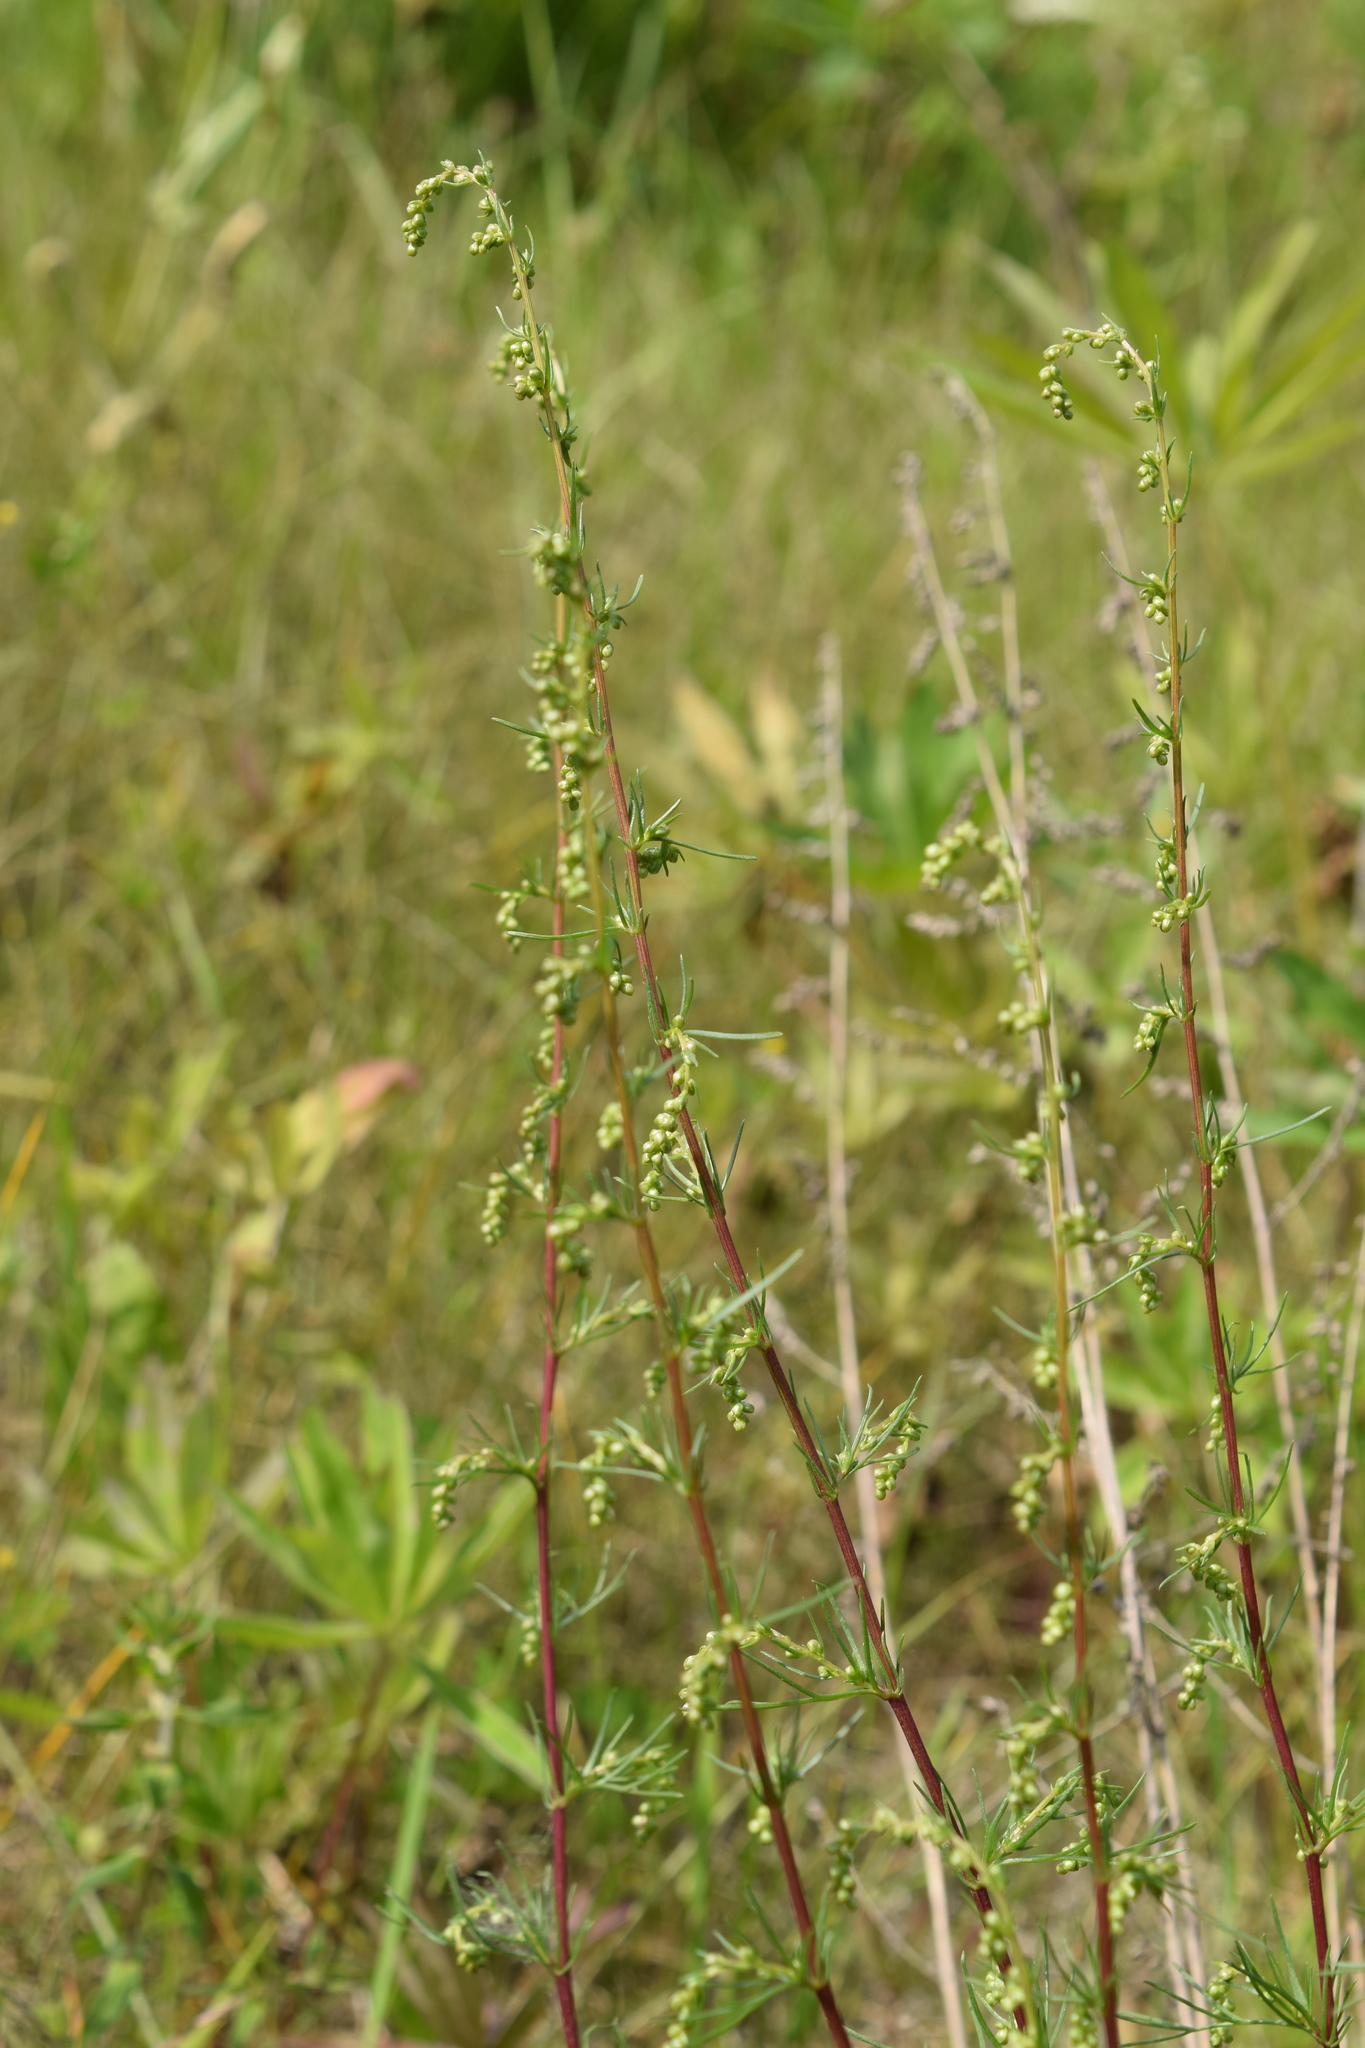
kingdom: Plantae
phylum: Tracheophyta
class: Magnoliopsida
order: Asterales
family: Asteraceae
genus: Artemisia
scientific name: Artemisia campestris
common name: Field wormwood
